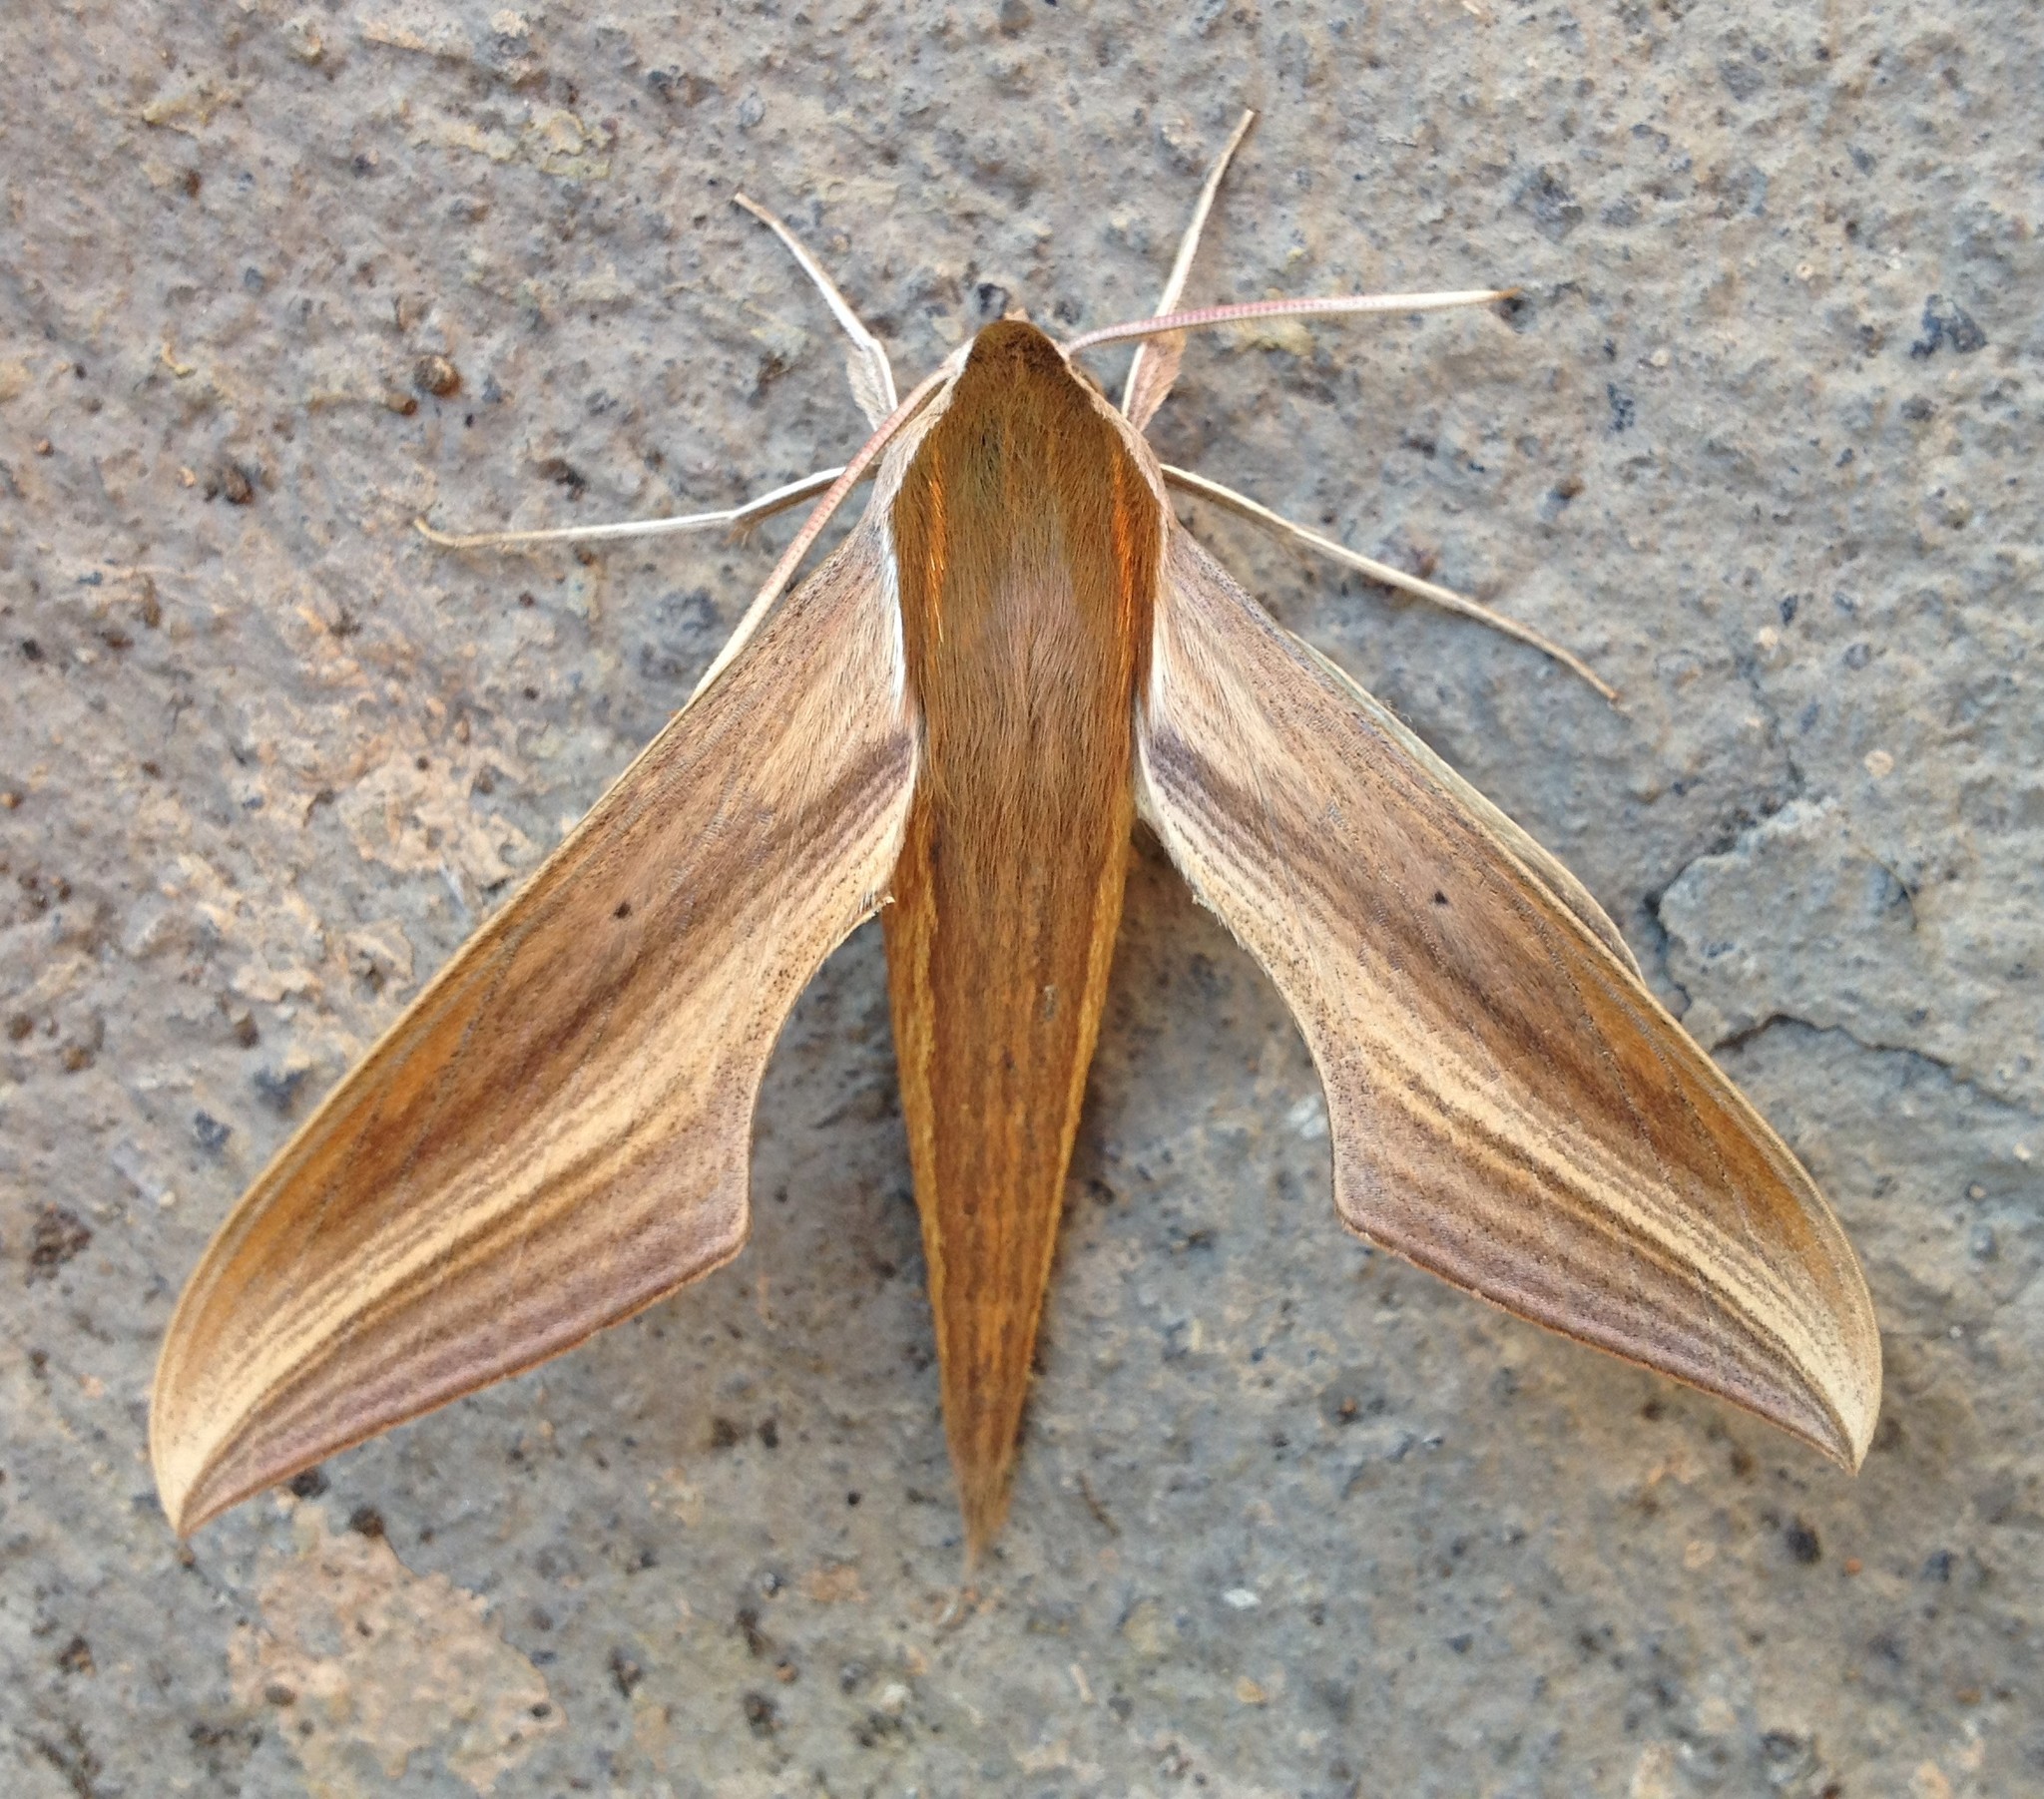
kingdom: Animalia
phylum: Arthropoda
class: Insecta
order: Lepidoptera
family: Sphingidae
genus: Xylophanes
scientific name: Xylophanes tersa
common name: Tersa sphinx
